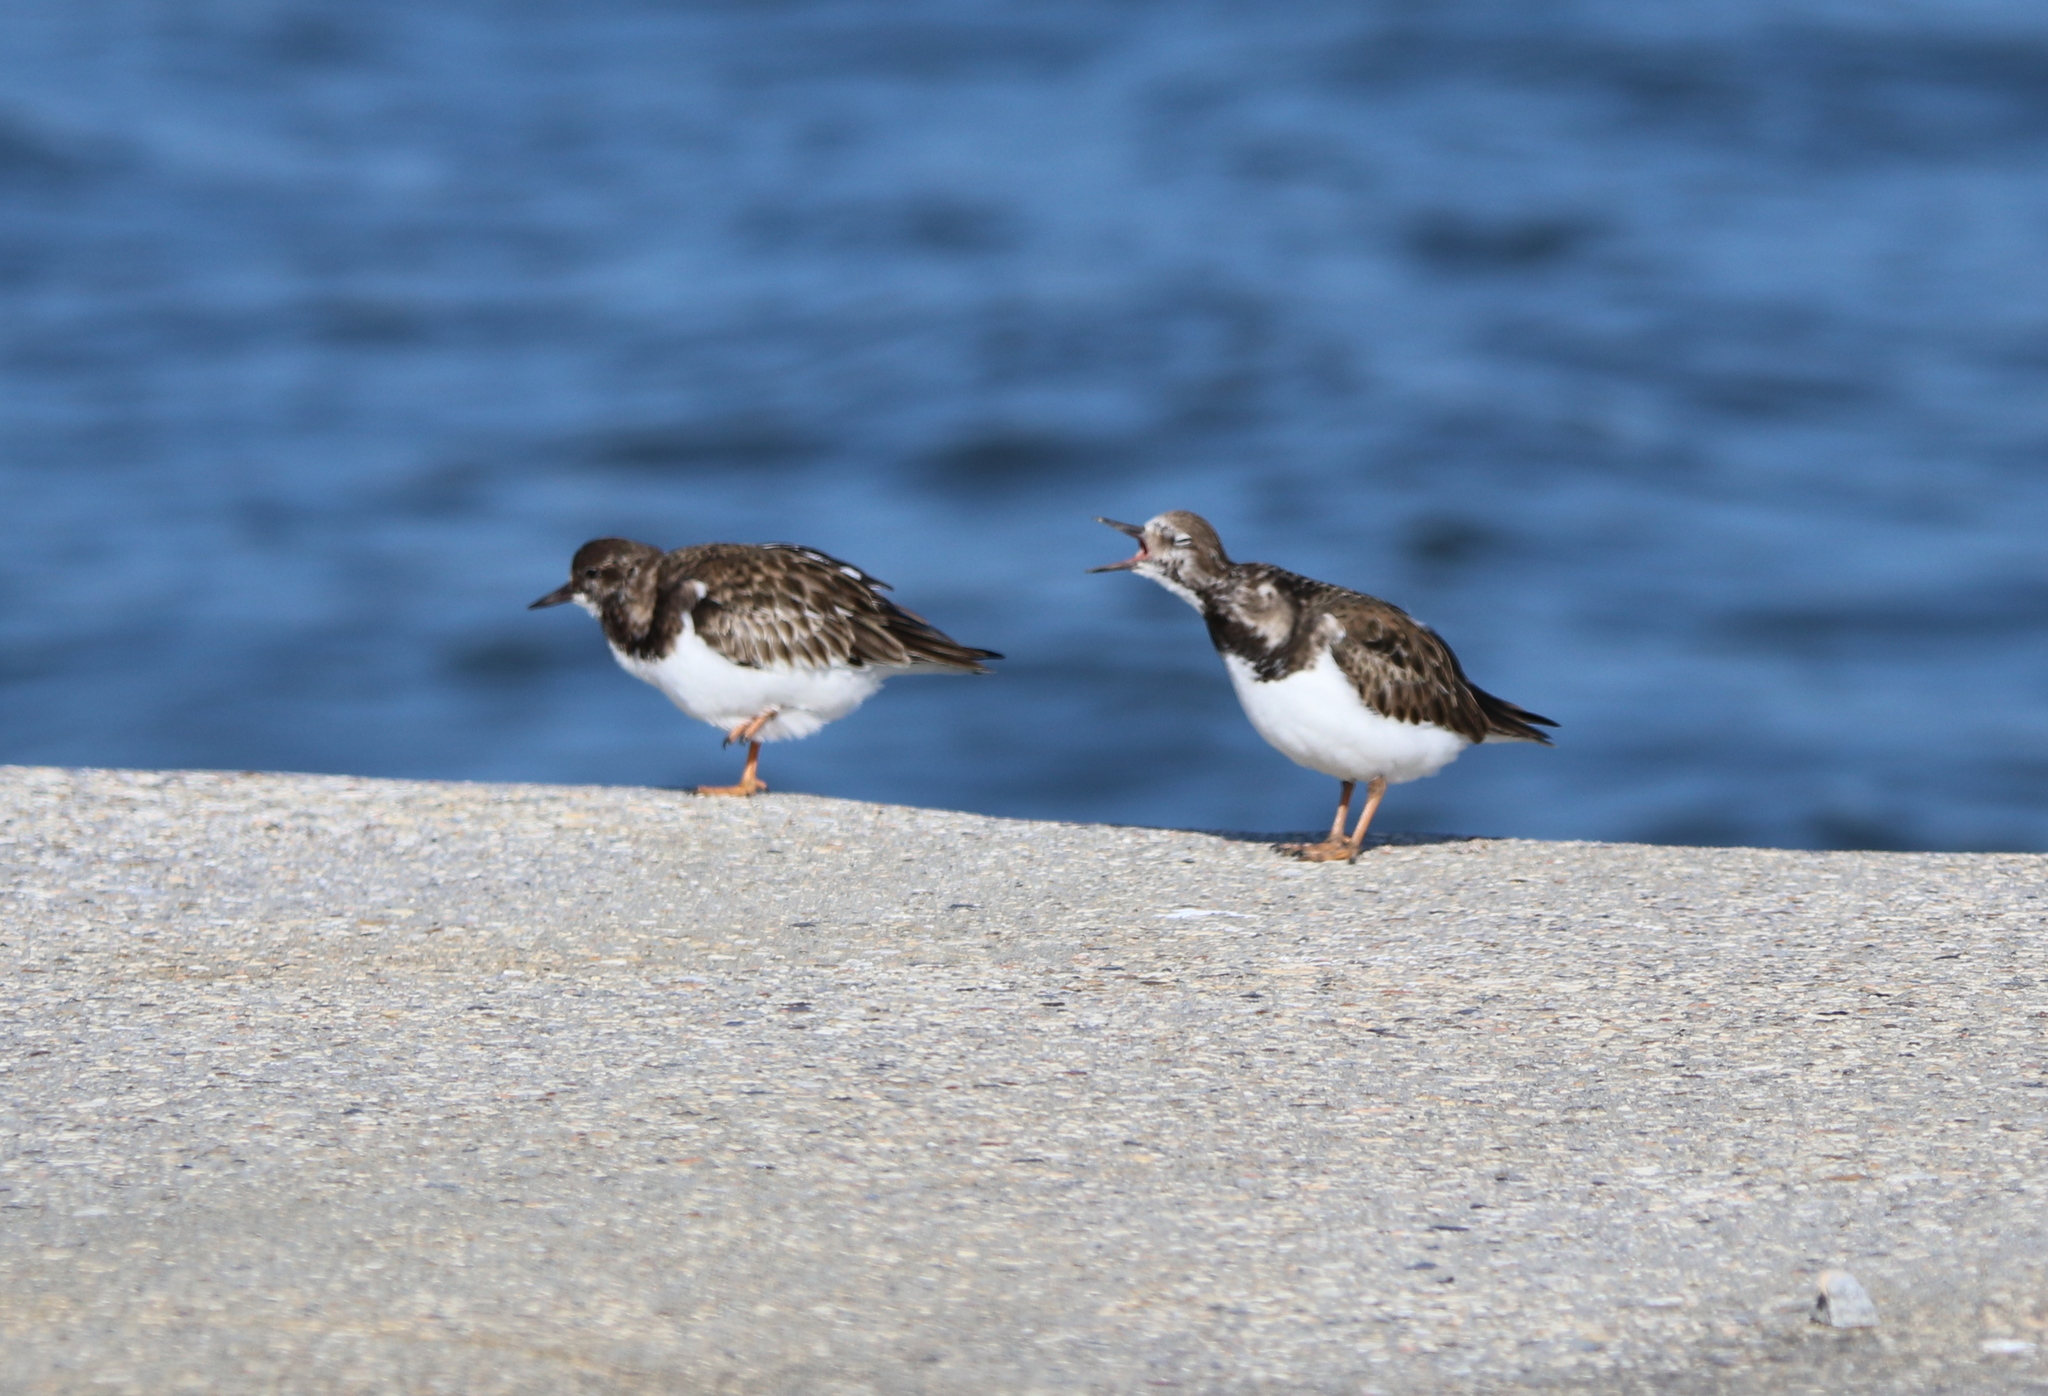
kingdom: Animalia
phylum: Chordata
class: Aves
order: Charadriiformes
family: Scolopacidae
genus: Arenaria
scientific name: Arenaria interpres
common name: Ruddy turnstone
